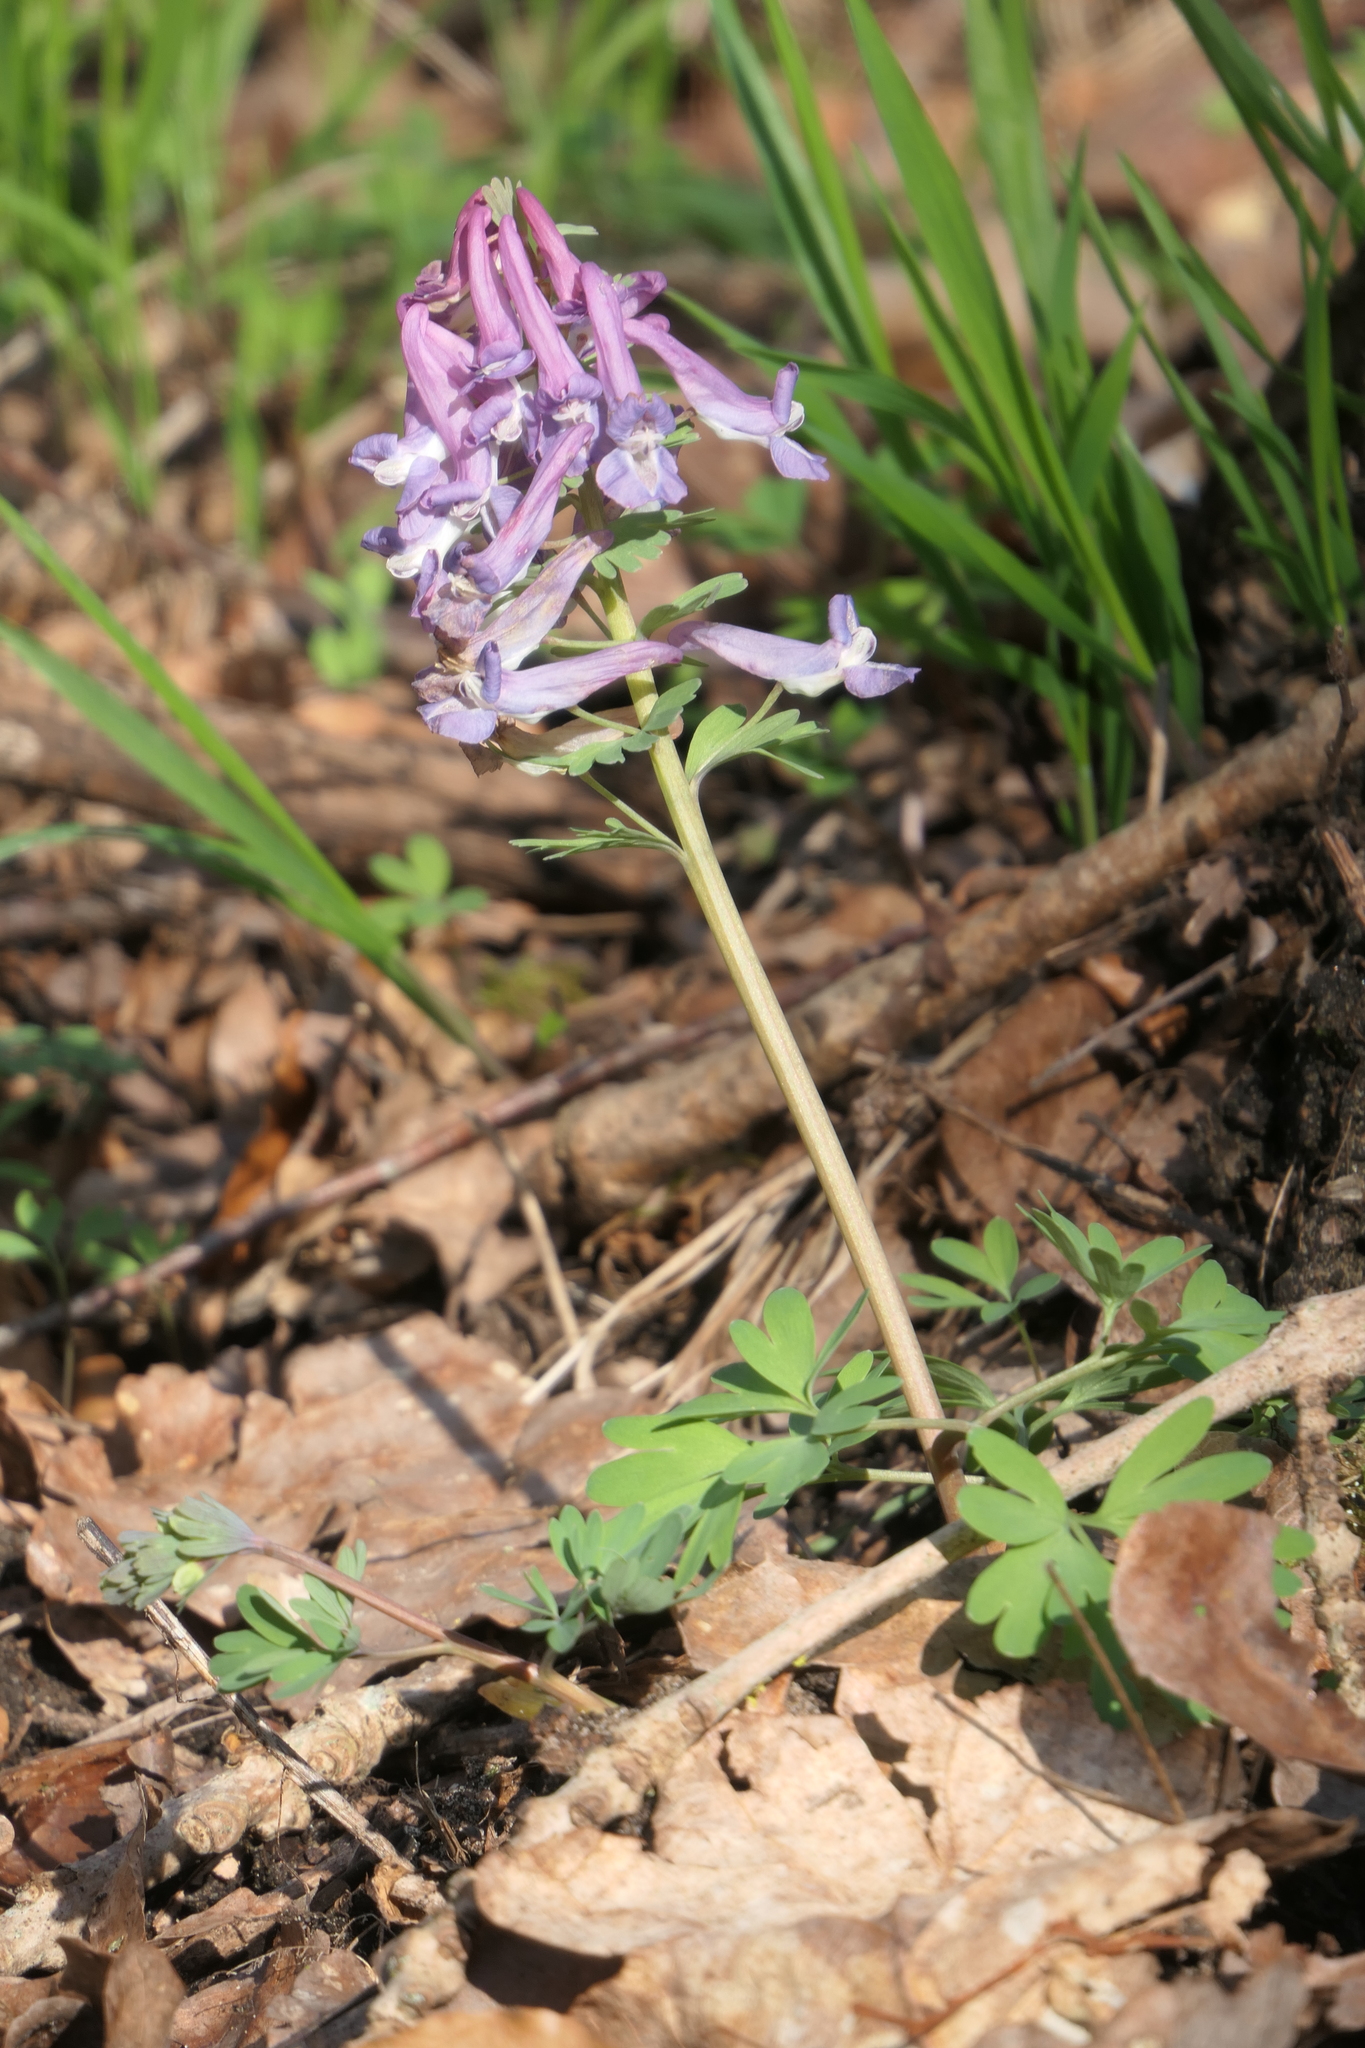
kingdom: Plantae
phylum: Tracheophyta
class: Magnoliopsida
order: Ranunculales
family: Papaveraceae
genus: Corydalis
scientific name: Corydalis solida
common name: Bird-in-a-bush
